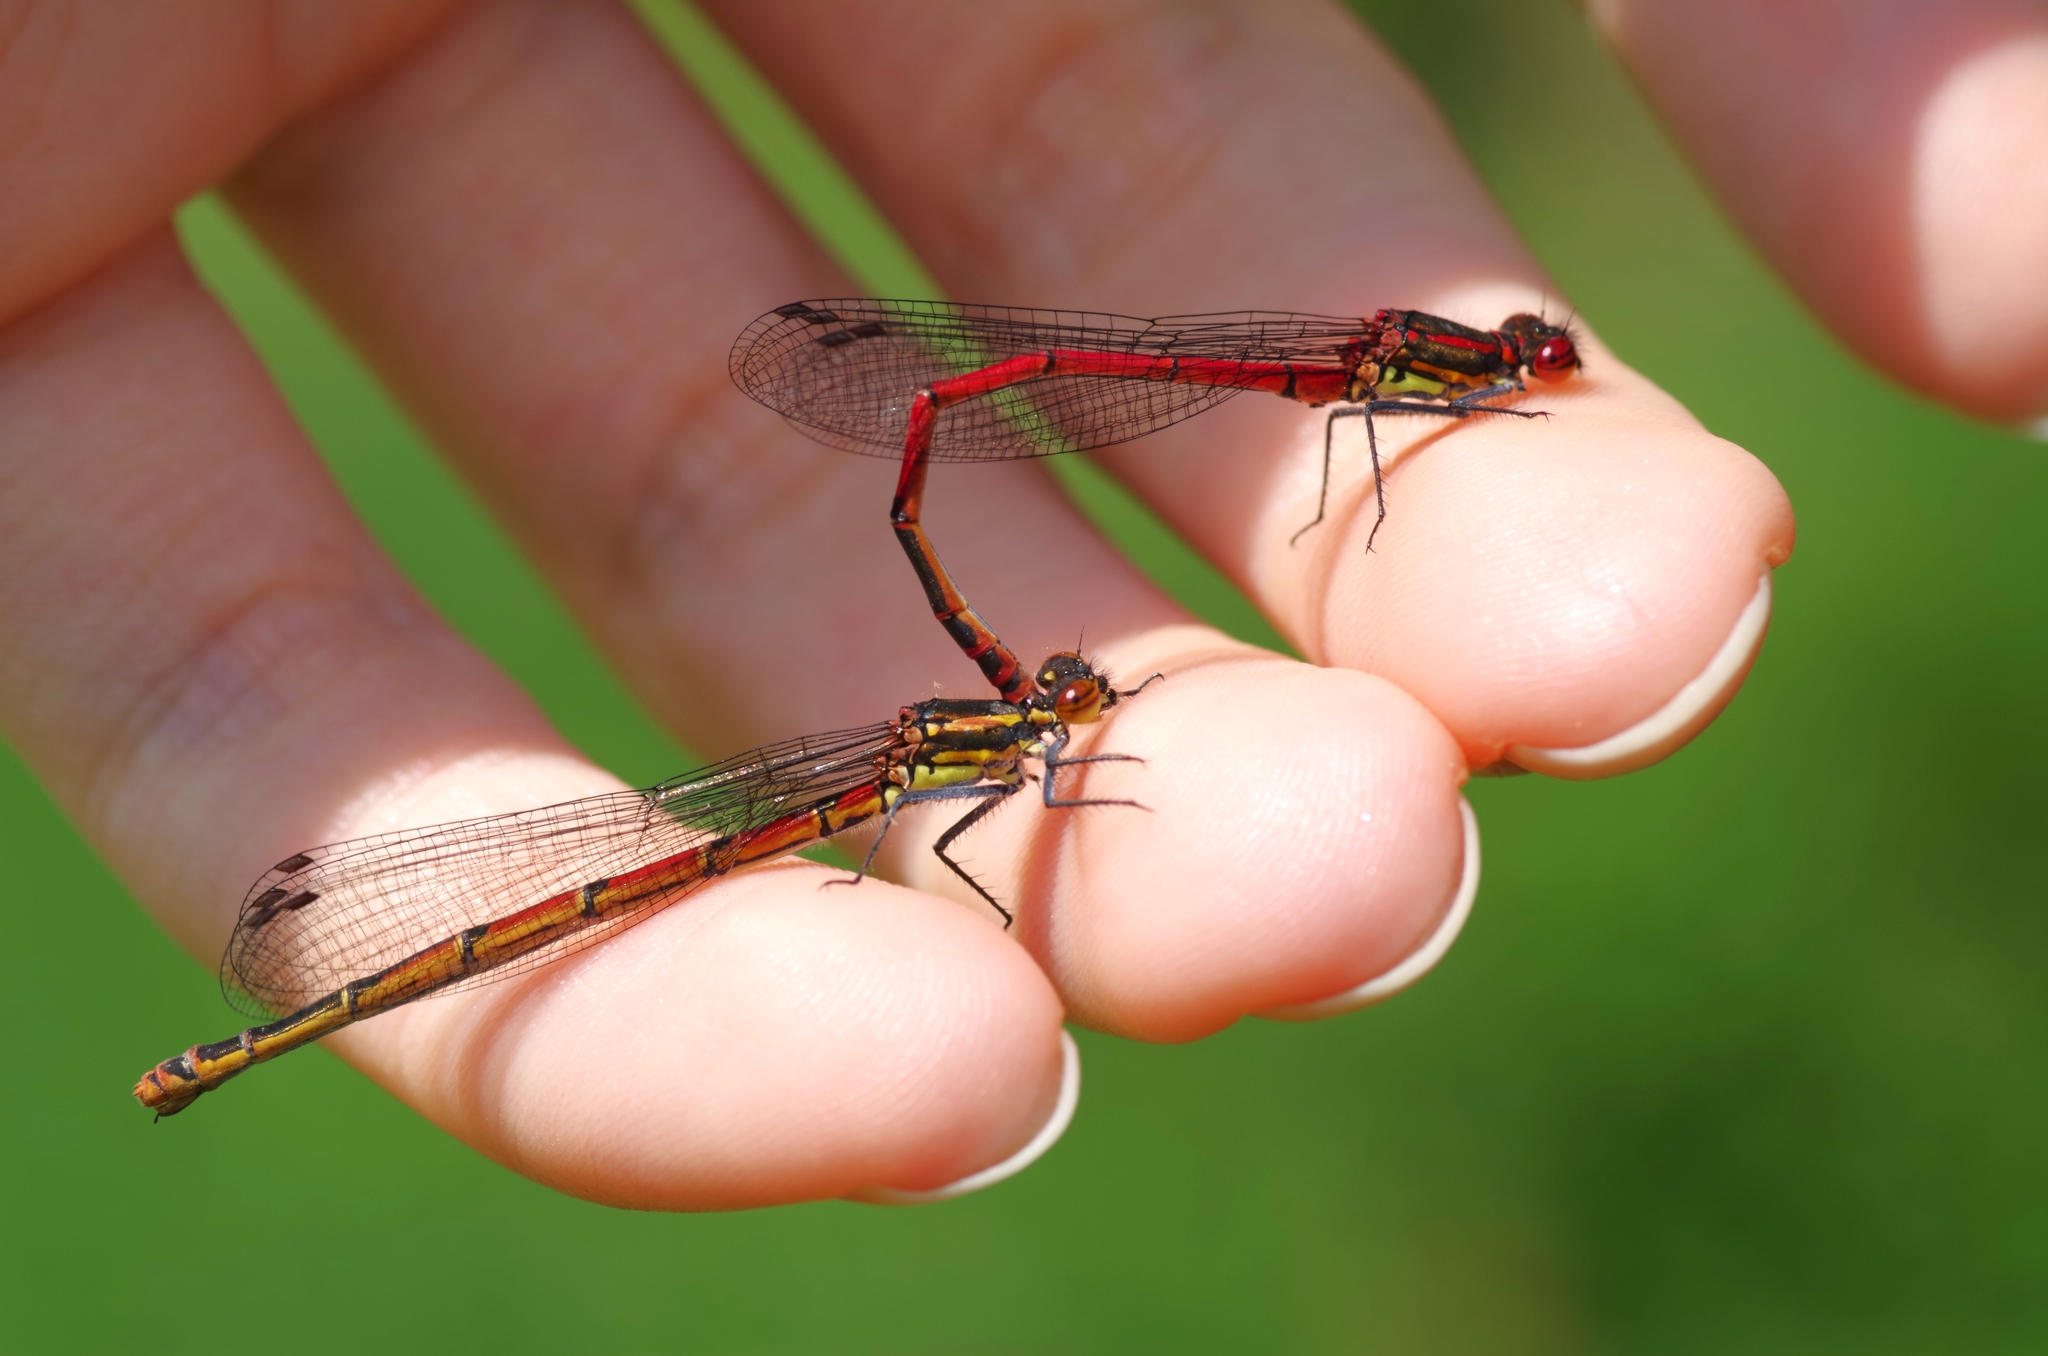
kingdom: Animalia
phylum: Arthropoda
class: Insecta
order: Odonata
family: Coenagrionidae
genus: Pyrrhosoma
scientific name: Pyrrhosoma nymphula
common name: Large red damsel
